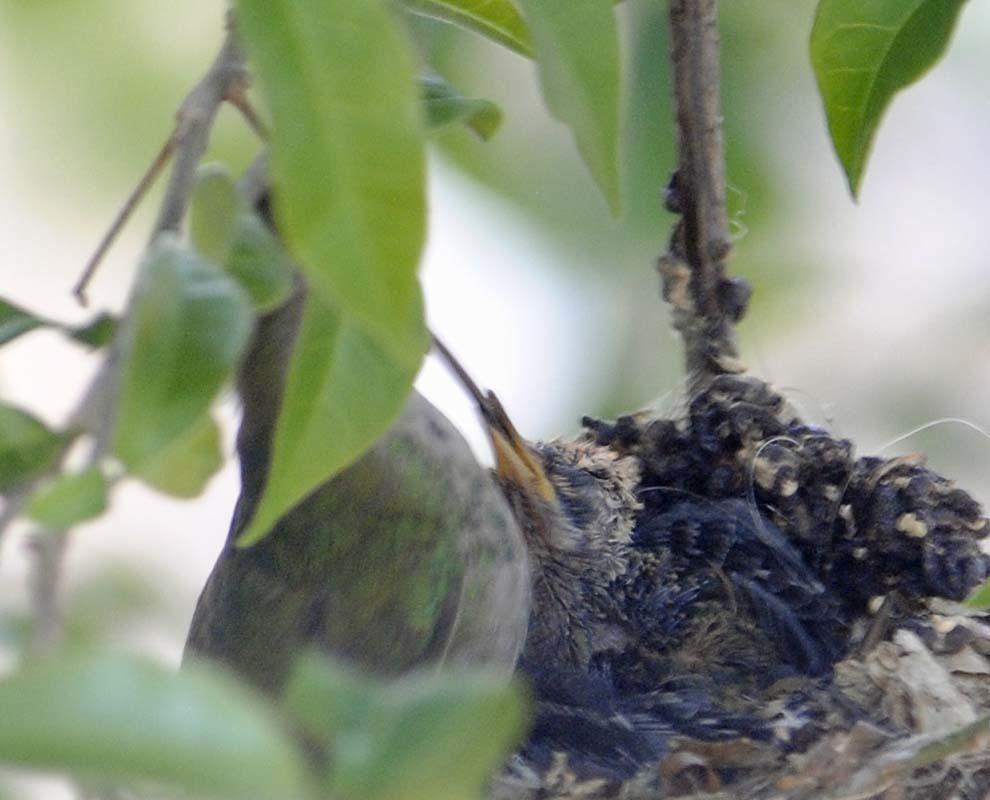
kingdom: Animalia
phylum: Chordata
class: Aves
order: Apodiformes
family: Trochilidae
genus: Cynanthus
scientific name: Cynanthus latirostris
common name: Broad-billed hummingbird
